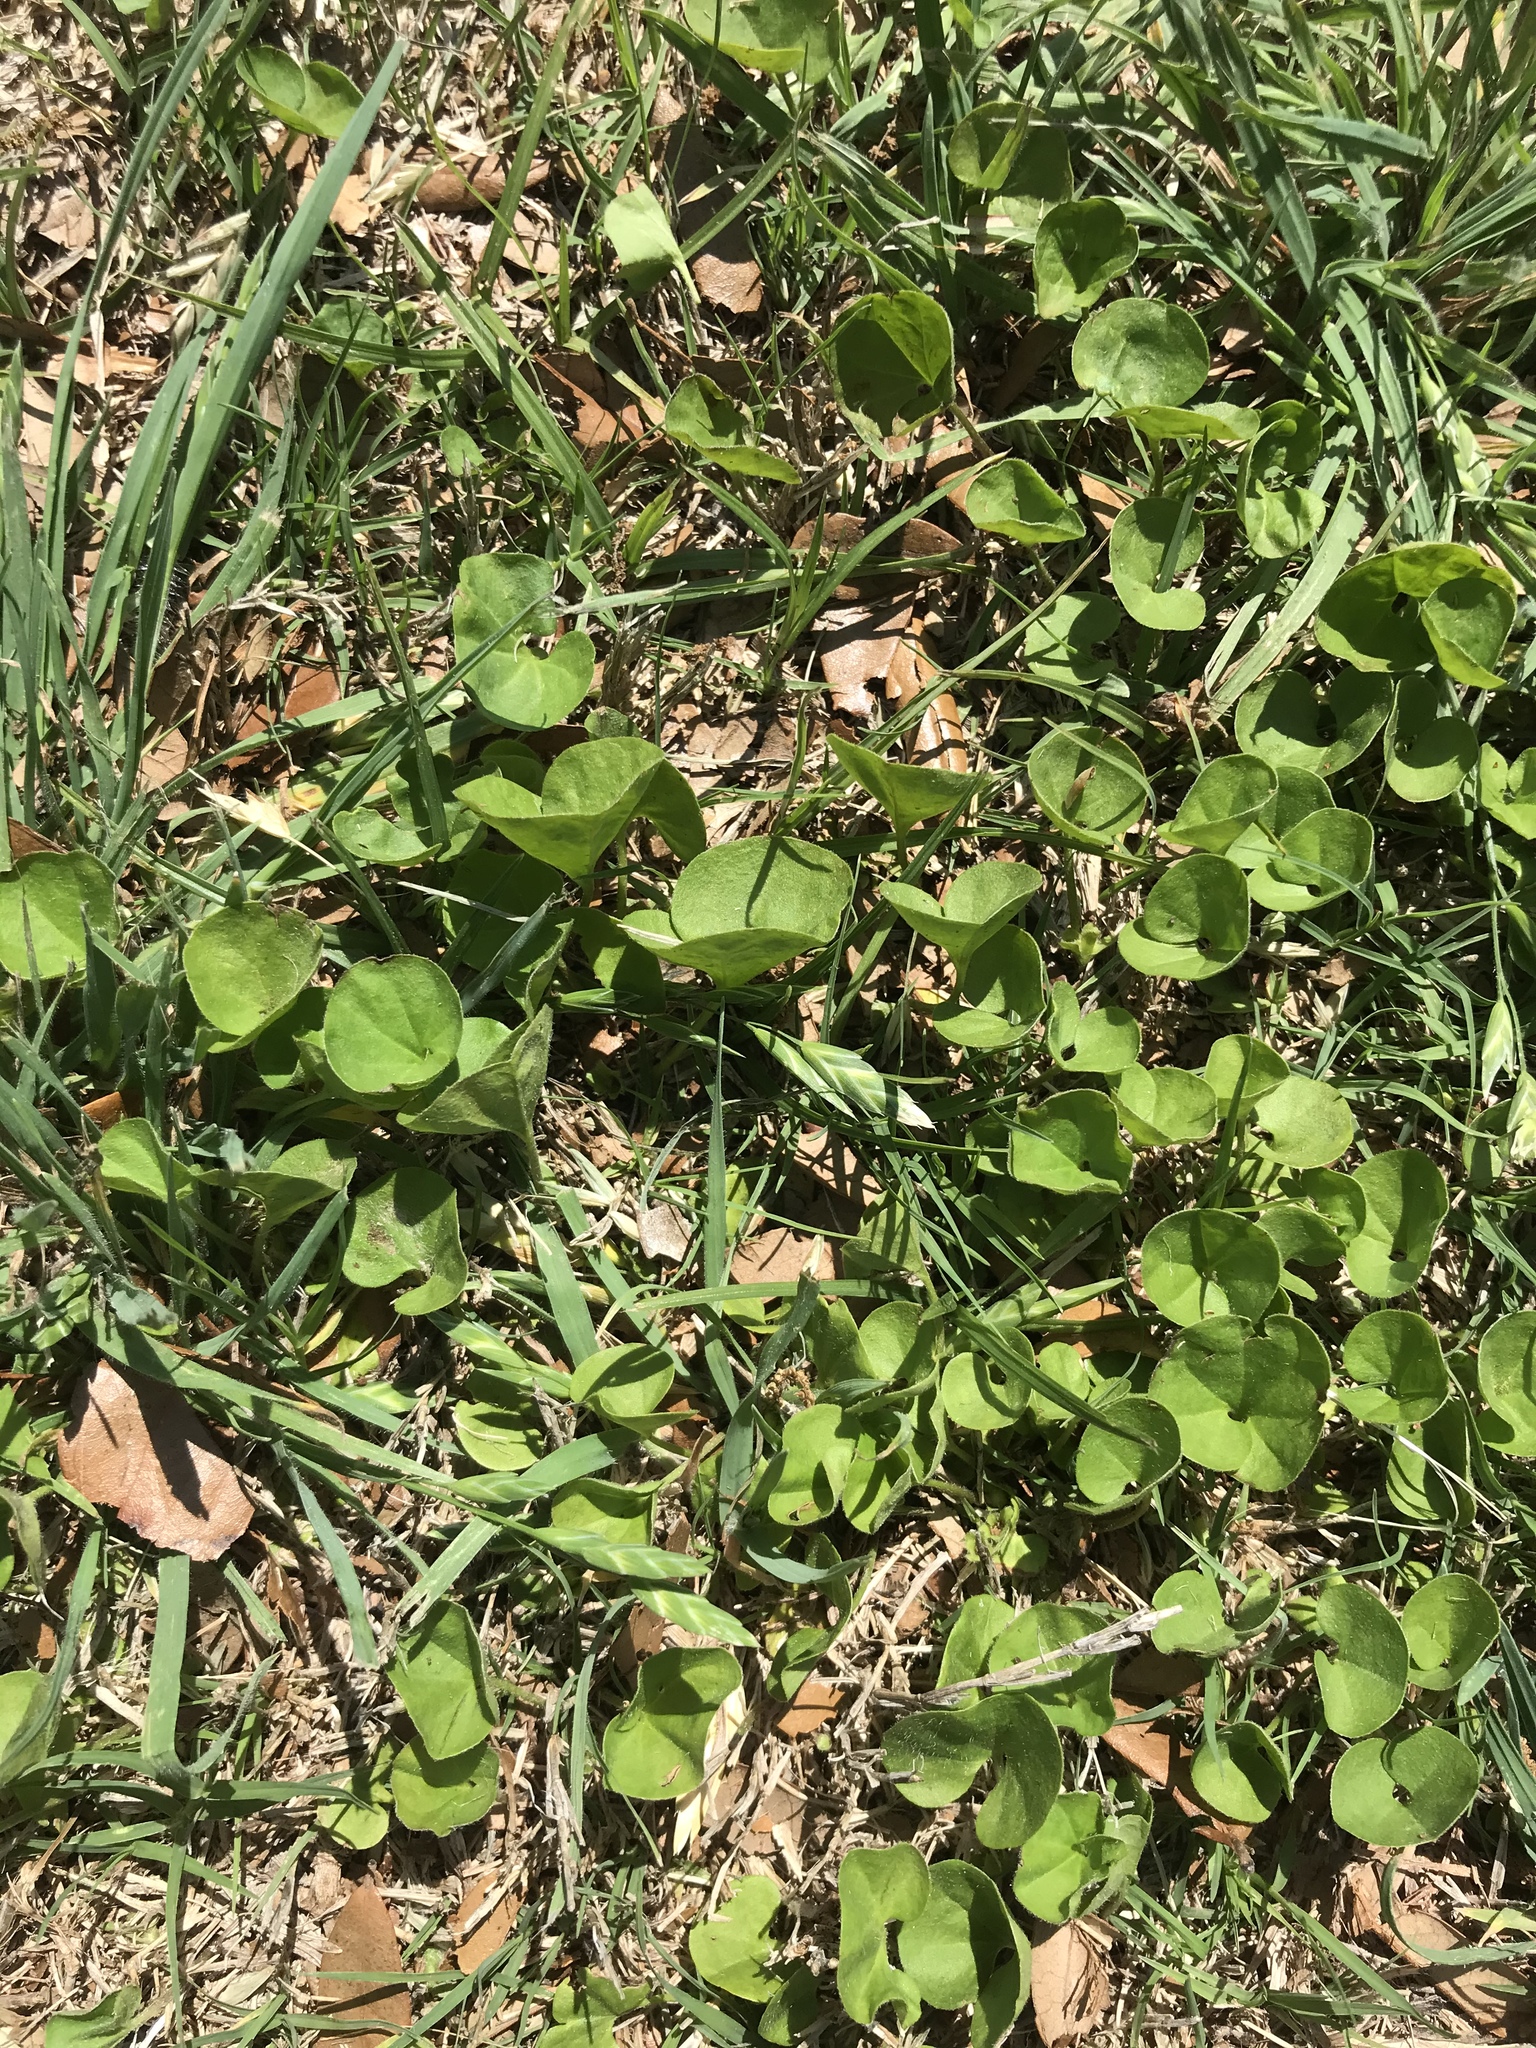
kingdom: Plantae
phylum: Tracheophyta
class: Magnoliopsida
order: Solanales
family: Convolvulaceae
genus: Dichondra
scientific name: Dichondra carolinensis
